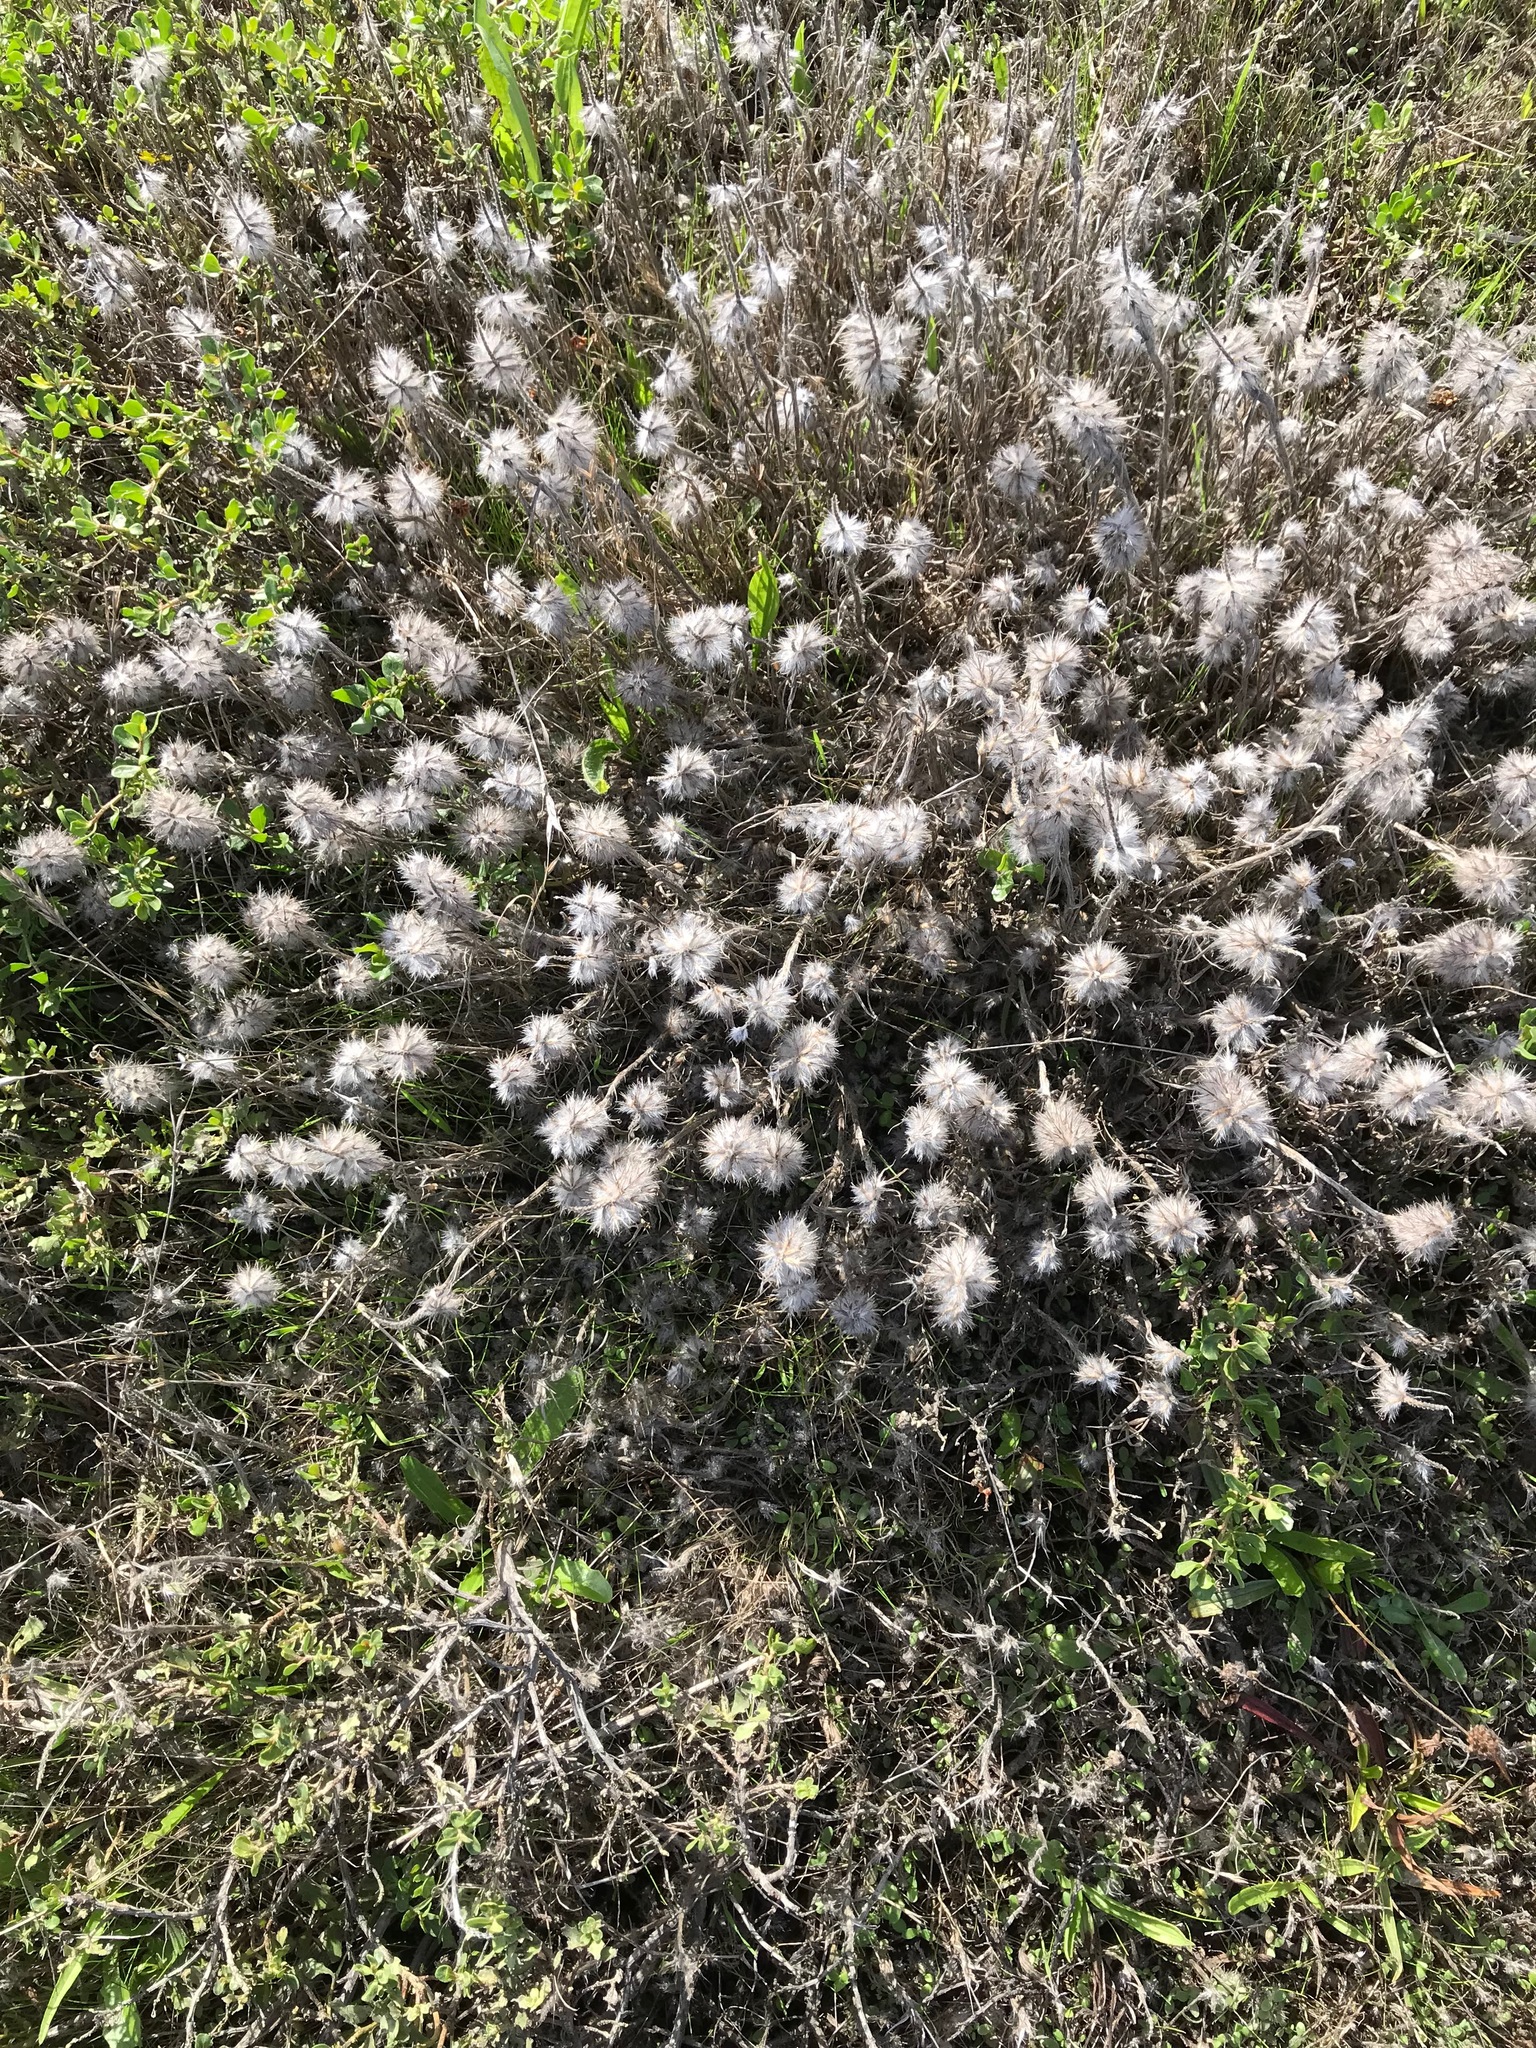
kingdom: Plantae
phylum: Tracheophyta
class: Magnoliopsida
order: Fabales
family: Fabaceae
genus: Trifolium
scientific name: Trifolium angustifolium
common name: Narrow clover
